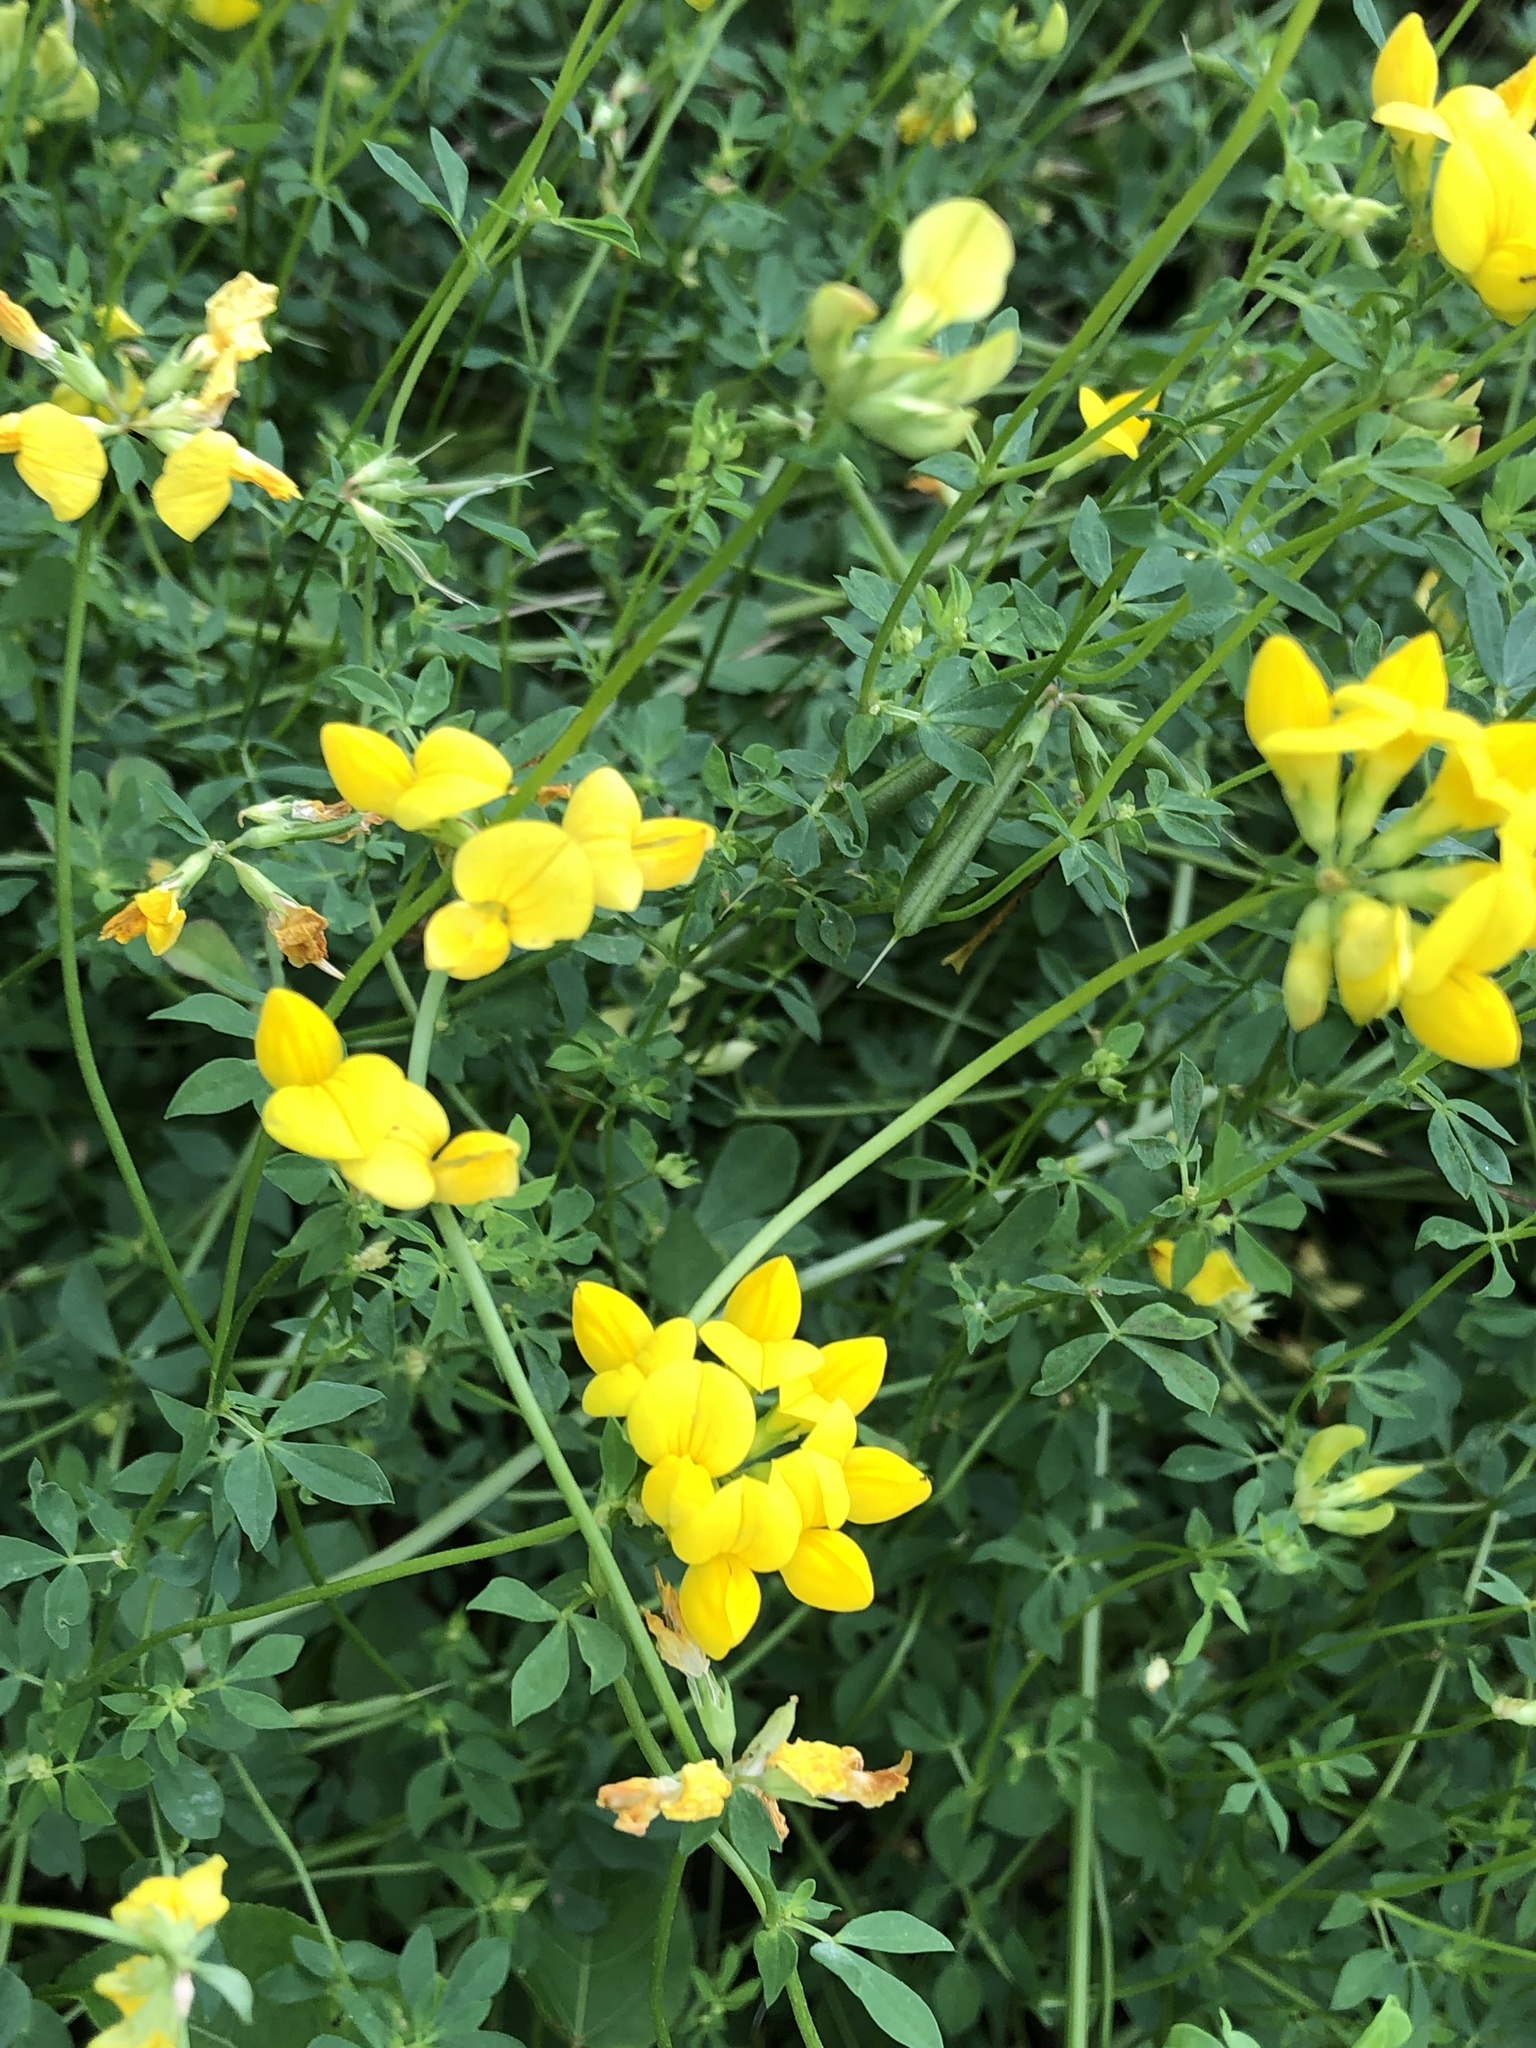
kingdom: Plantae
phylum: Tracheophyta
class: Magnoliopsida
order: Fabales
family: Fabaceae
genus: Lotus
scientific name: Lotus corniculatus
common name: Common bird's-foot-trefoil
